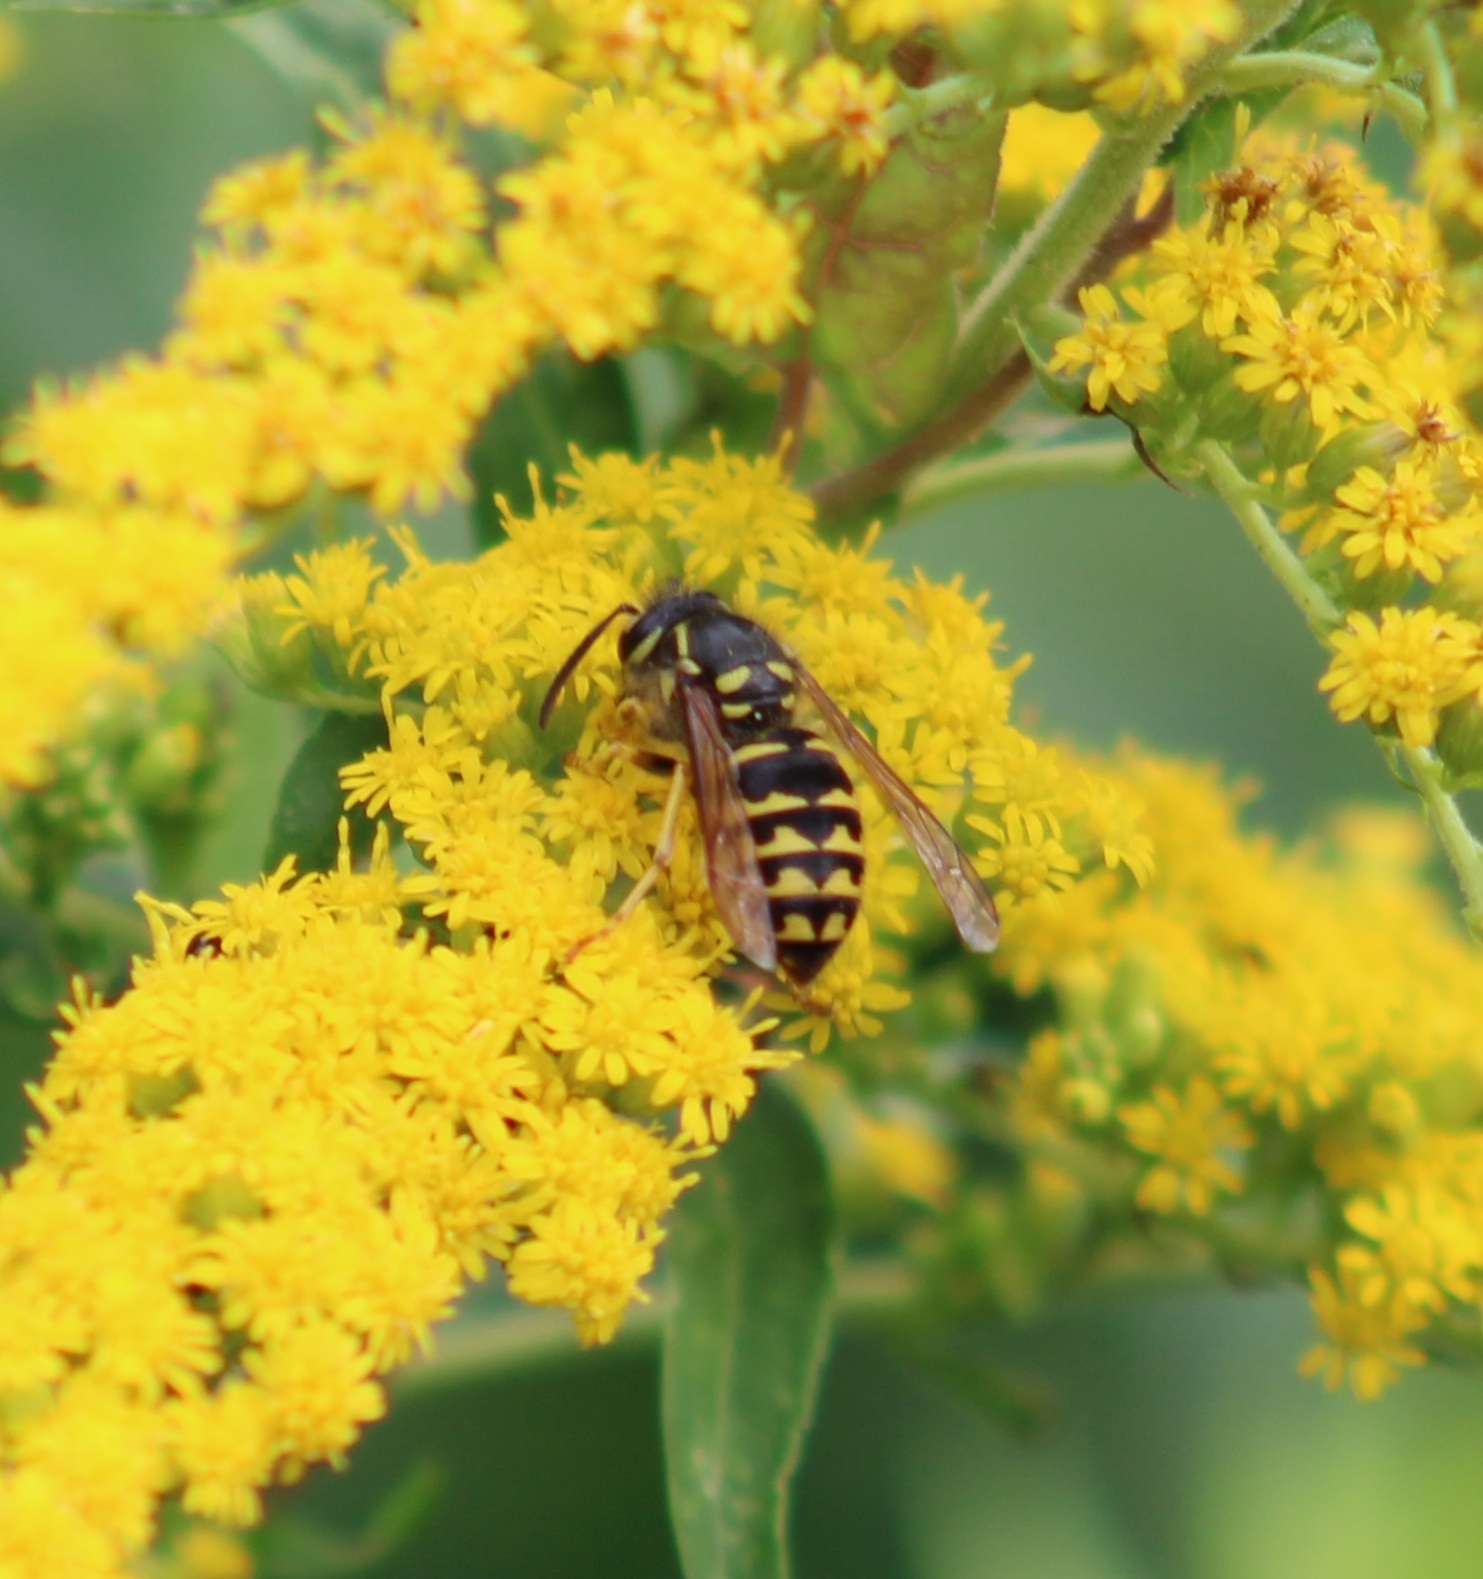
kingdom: Animalia
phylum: Arthropoda
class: Insecta
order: Hymenoptera
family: Vespidae
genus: Dolichovespula
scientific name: Dolichovespula arenaria
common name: Aerial yellowjacket
